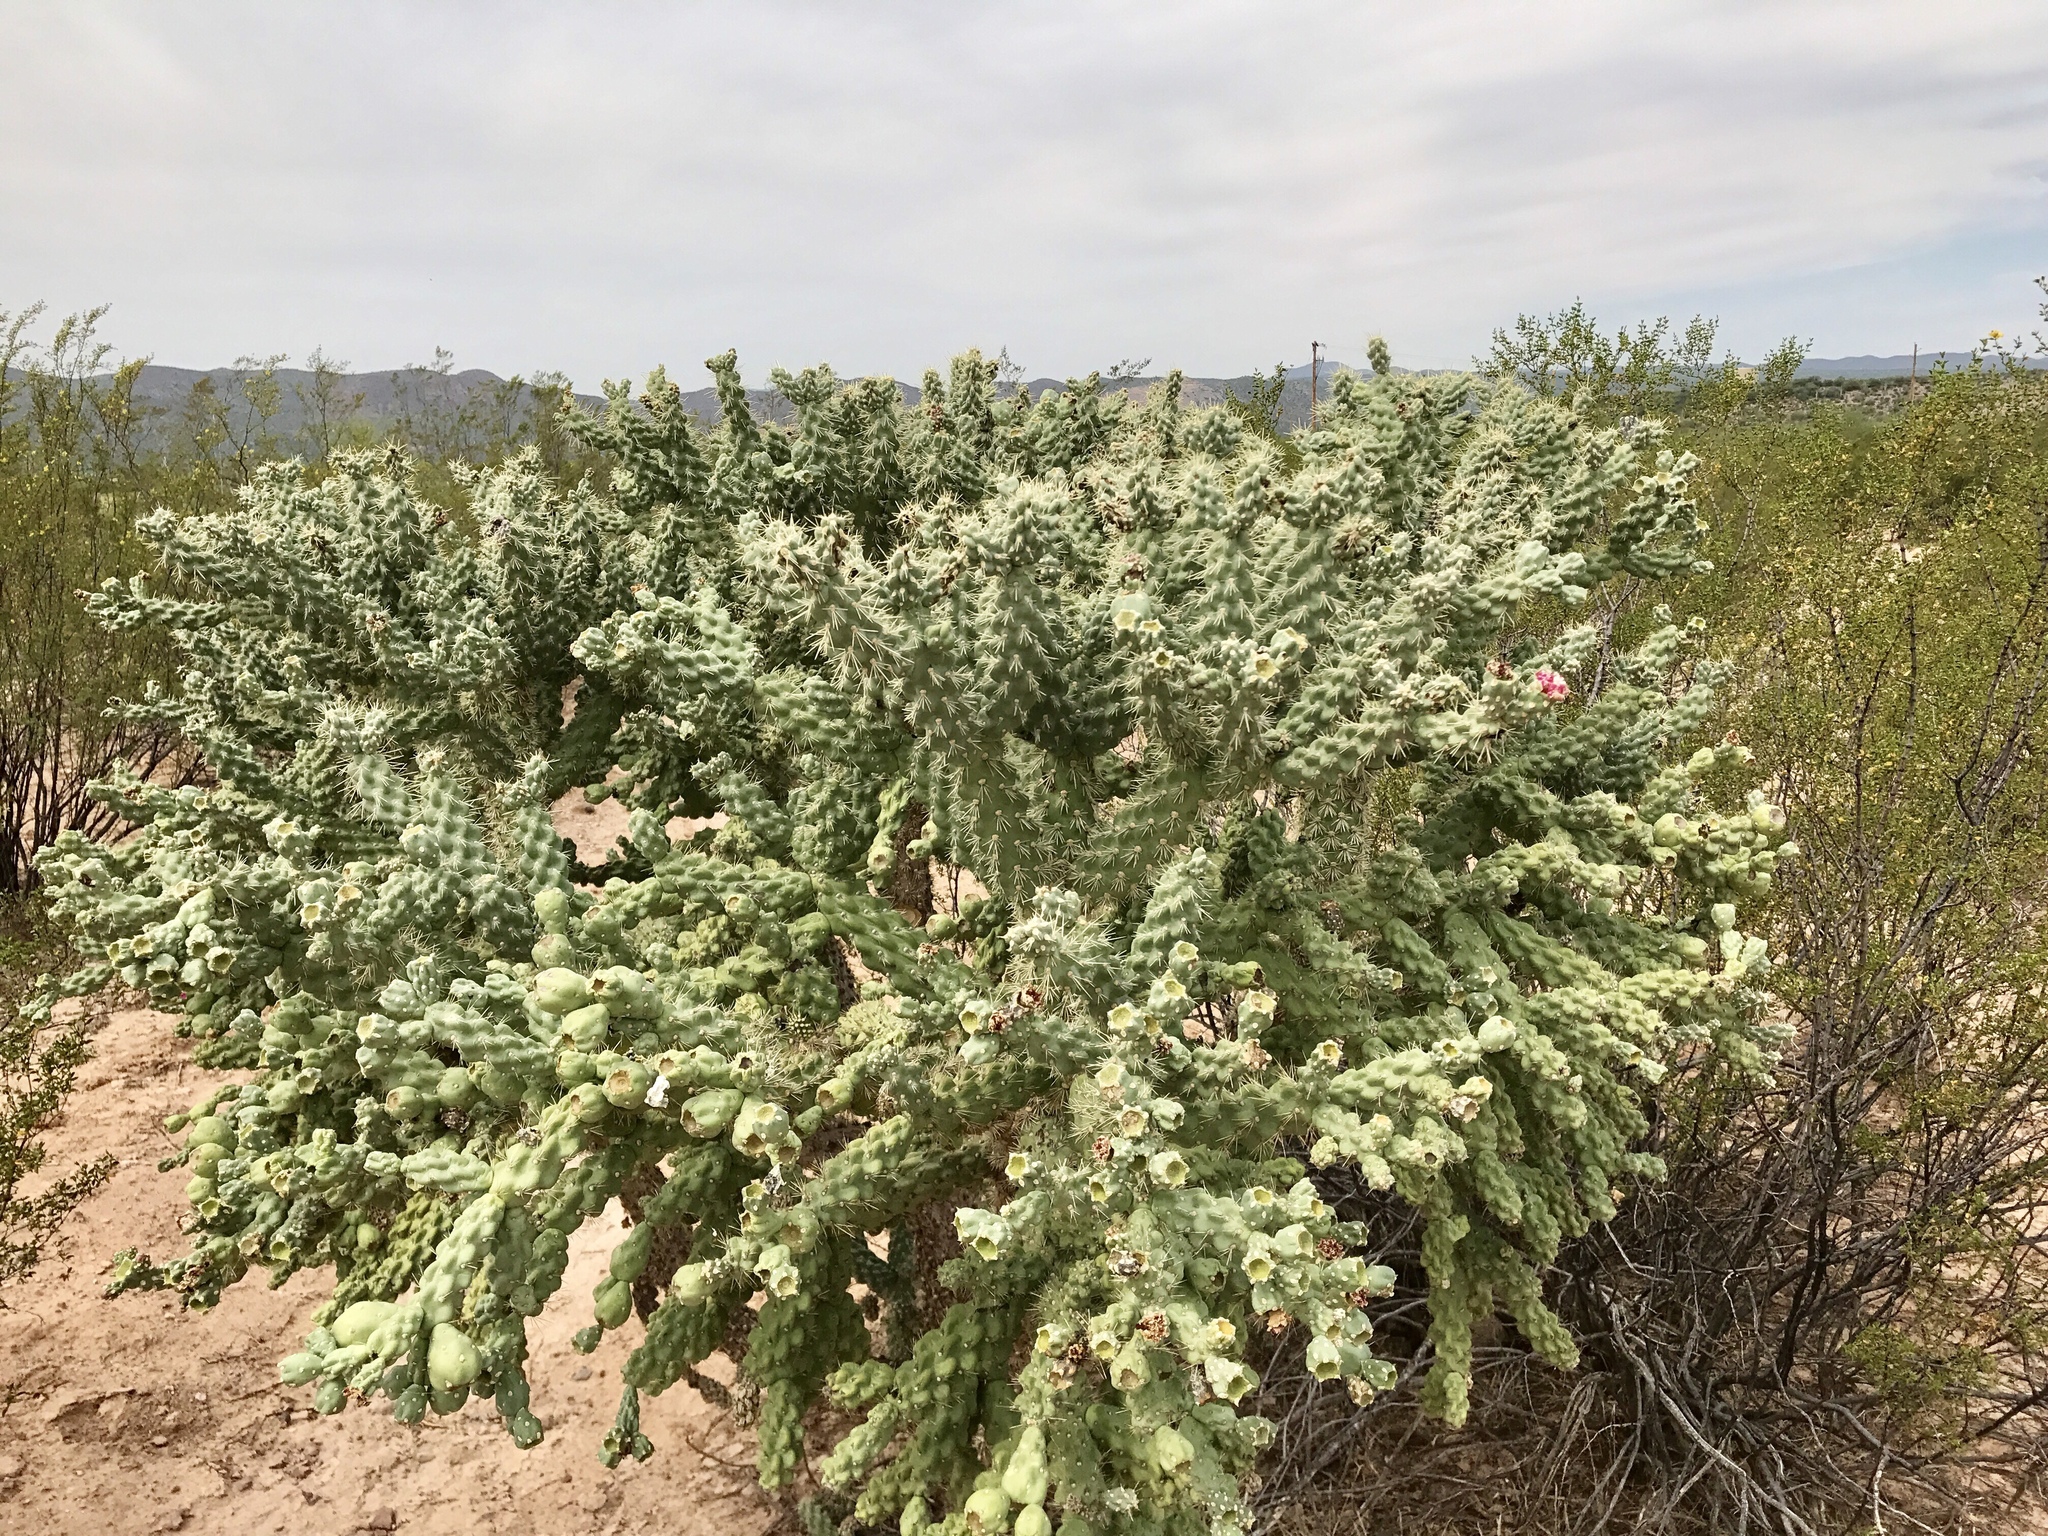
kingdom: Plantae
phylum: Tracheophyta
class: Magnoliopsida
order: Caryophyllales
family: Cactaceae
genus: Cylindropuntia
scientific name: Cylindropuntia fulgida
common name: Jumping cholla
